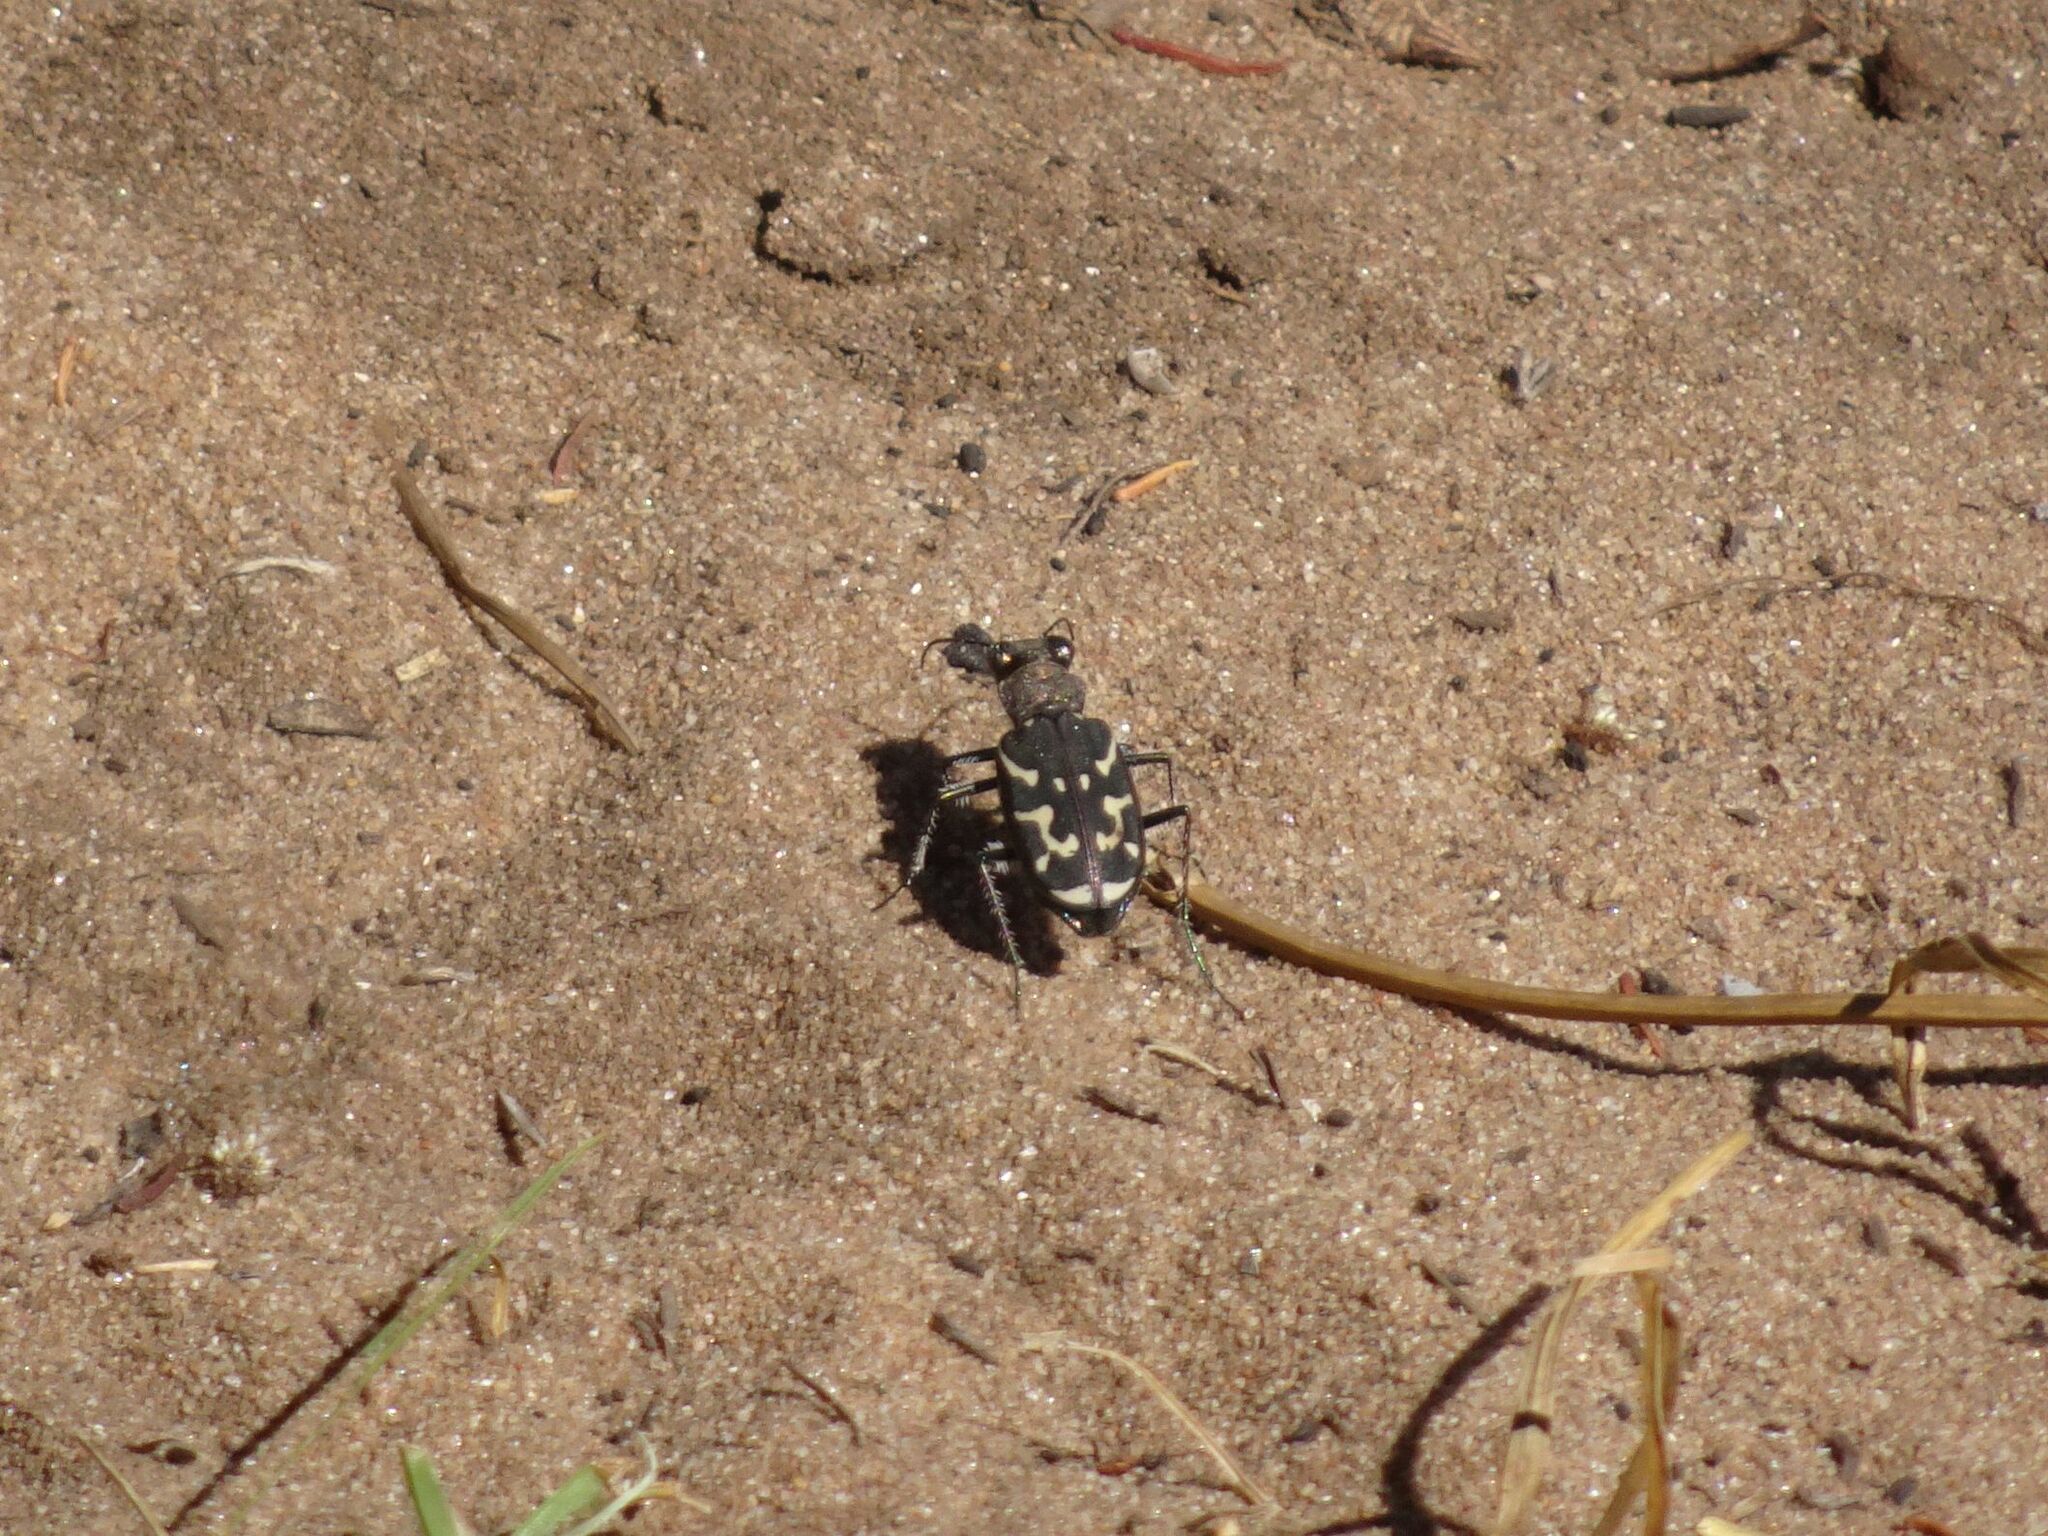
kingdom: Animalia
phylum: Arthropoda
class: Insecta
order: Coleoptera
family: Carabidae
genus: Cicindela
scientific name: Cicindela lurida
